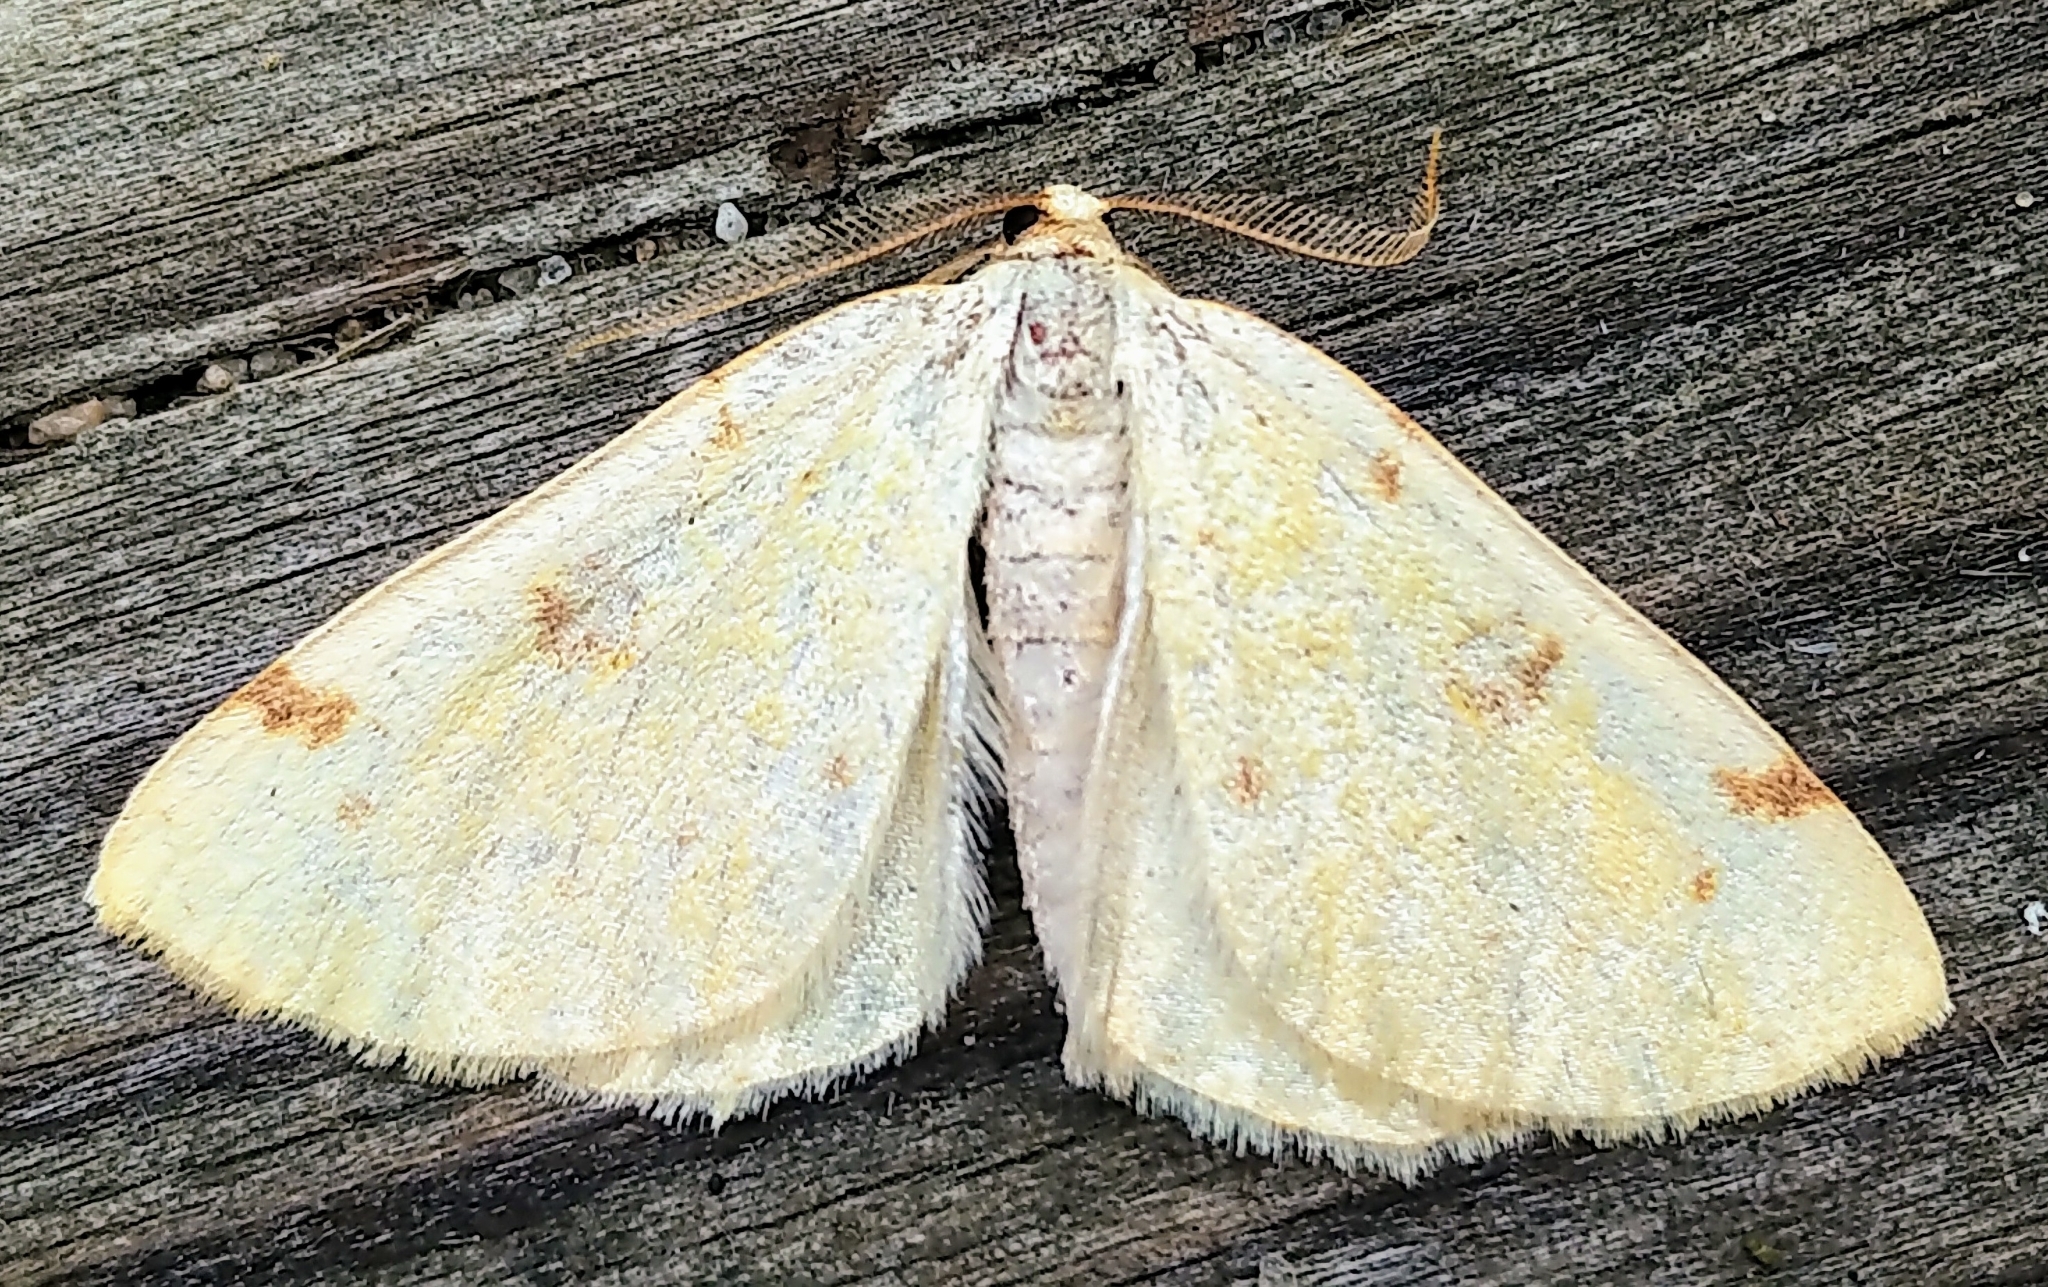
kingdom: Animalia
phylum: Arthropoda
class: Insecta
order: Lepidoptera
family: Geometridae
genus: Hesperumia
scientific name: Hesperumia sulphuraria
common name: Sulphur moth
